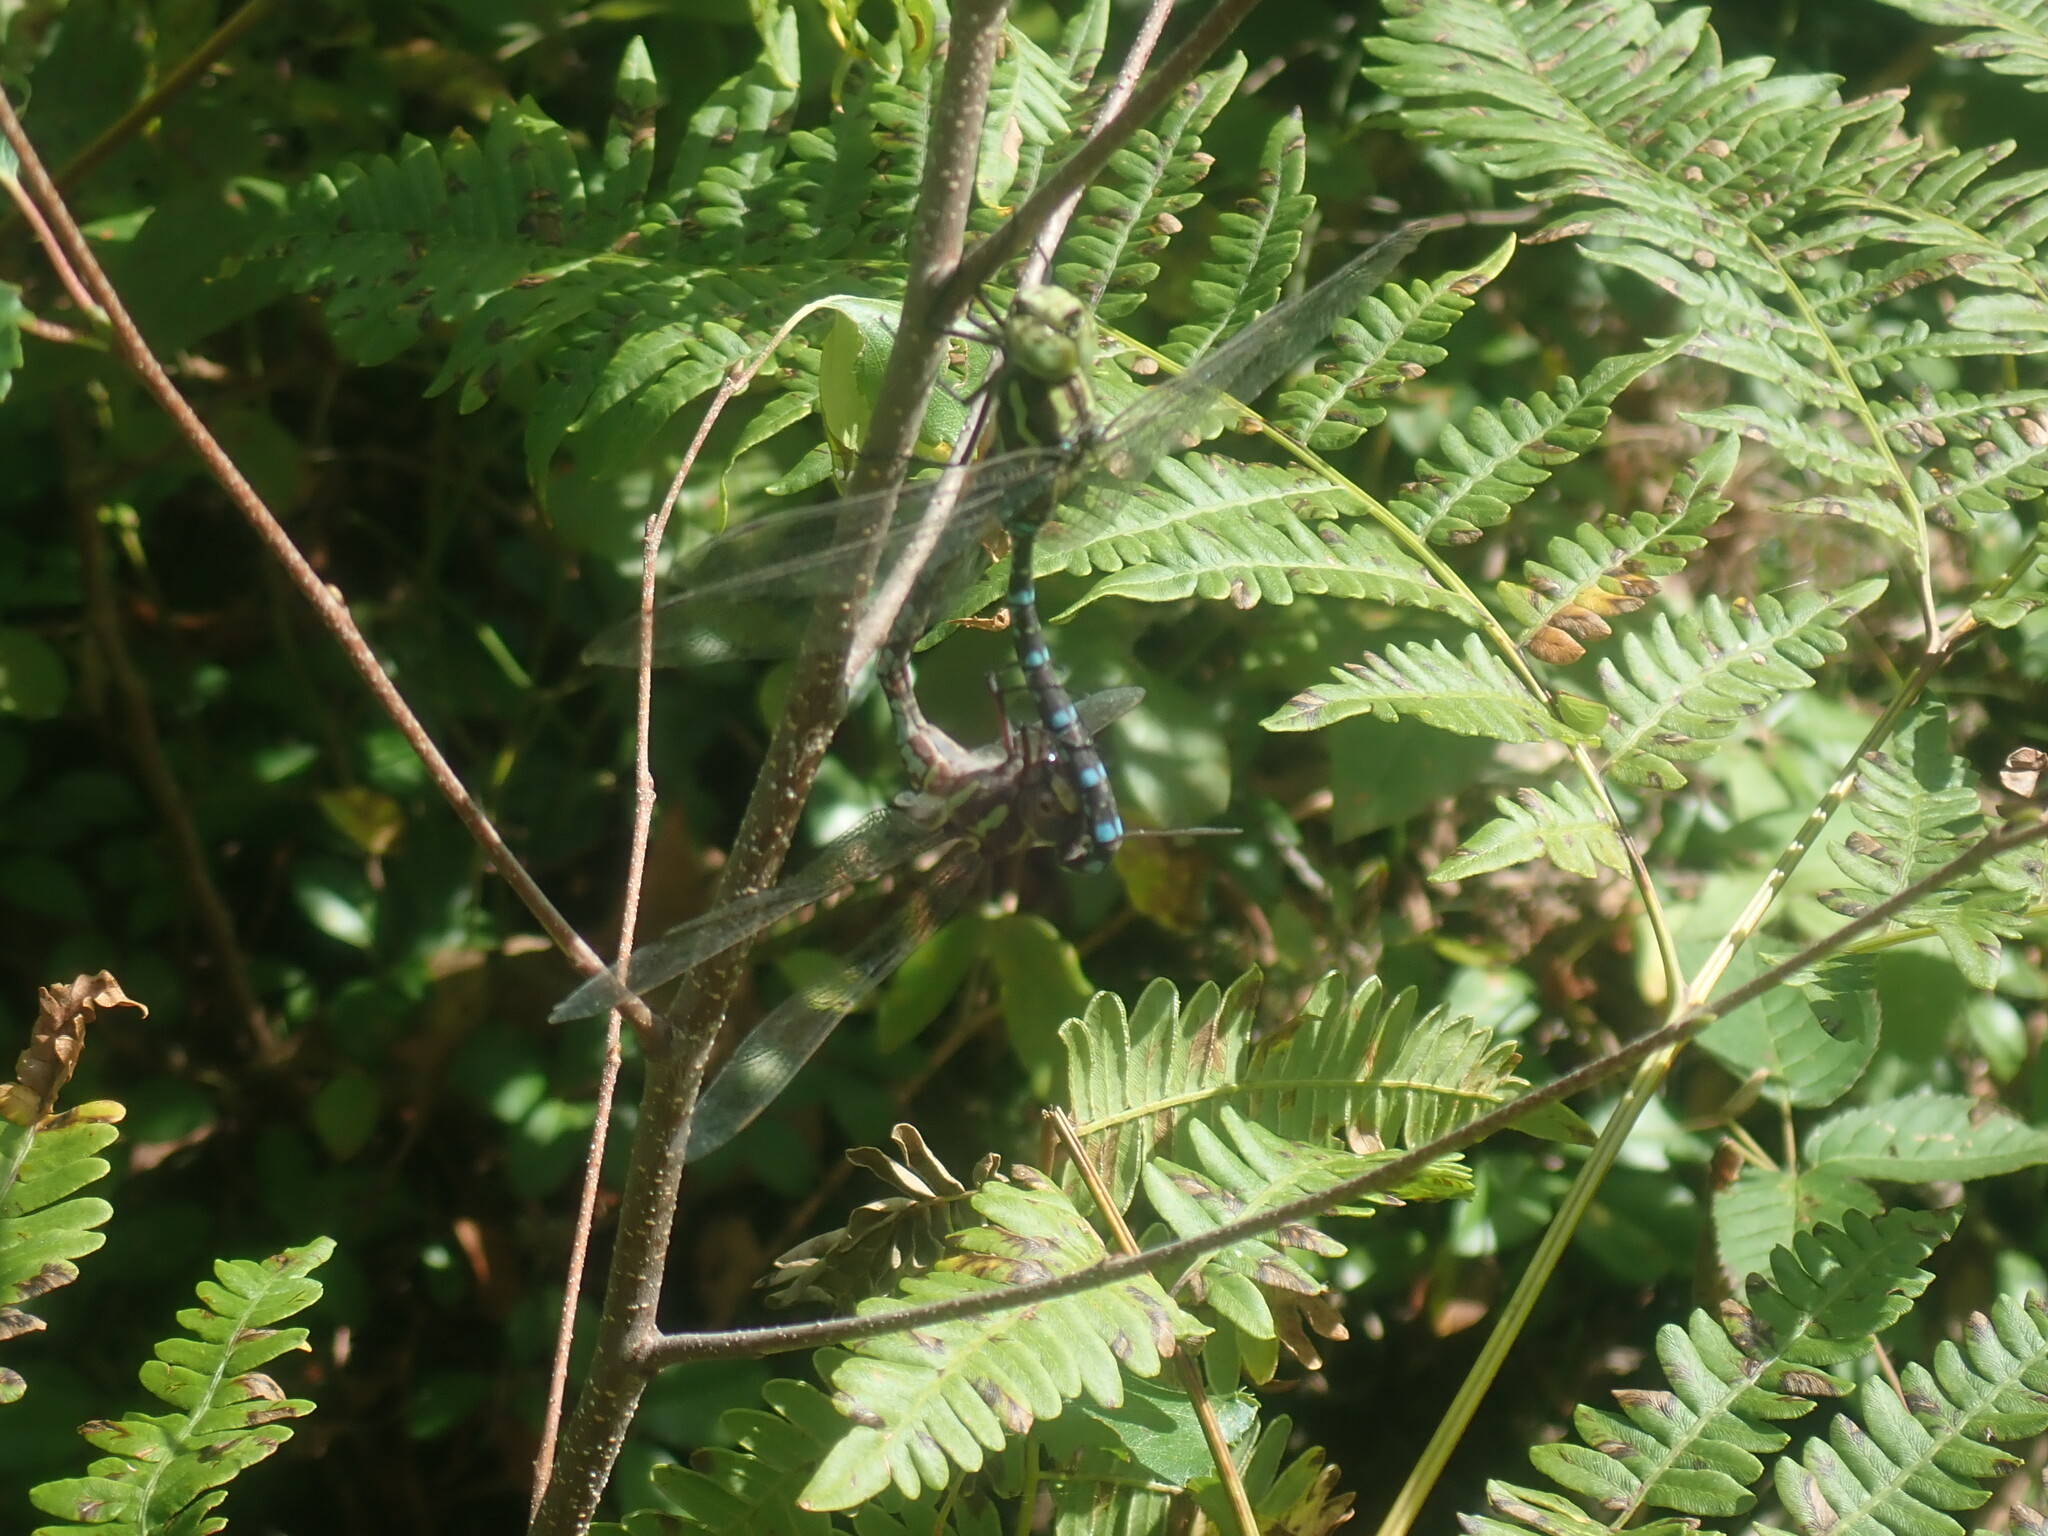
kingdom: Animalia
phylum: Arthropoda
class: Insecta
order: Odonata
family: Aeshnidae
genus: Aeshna
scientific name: Aeshna verticalis
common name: Green-striped darner
